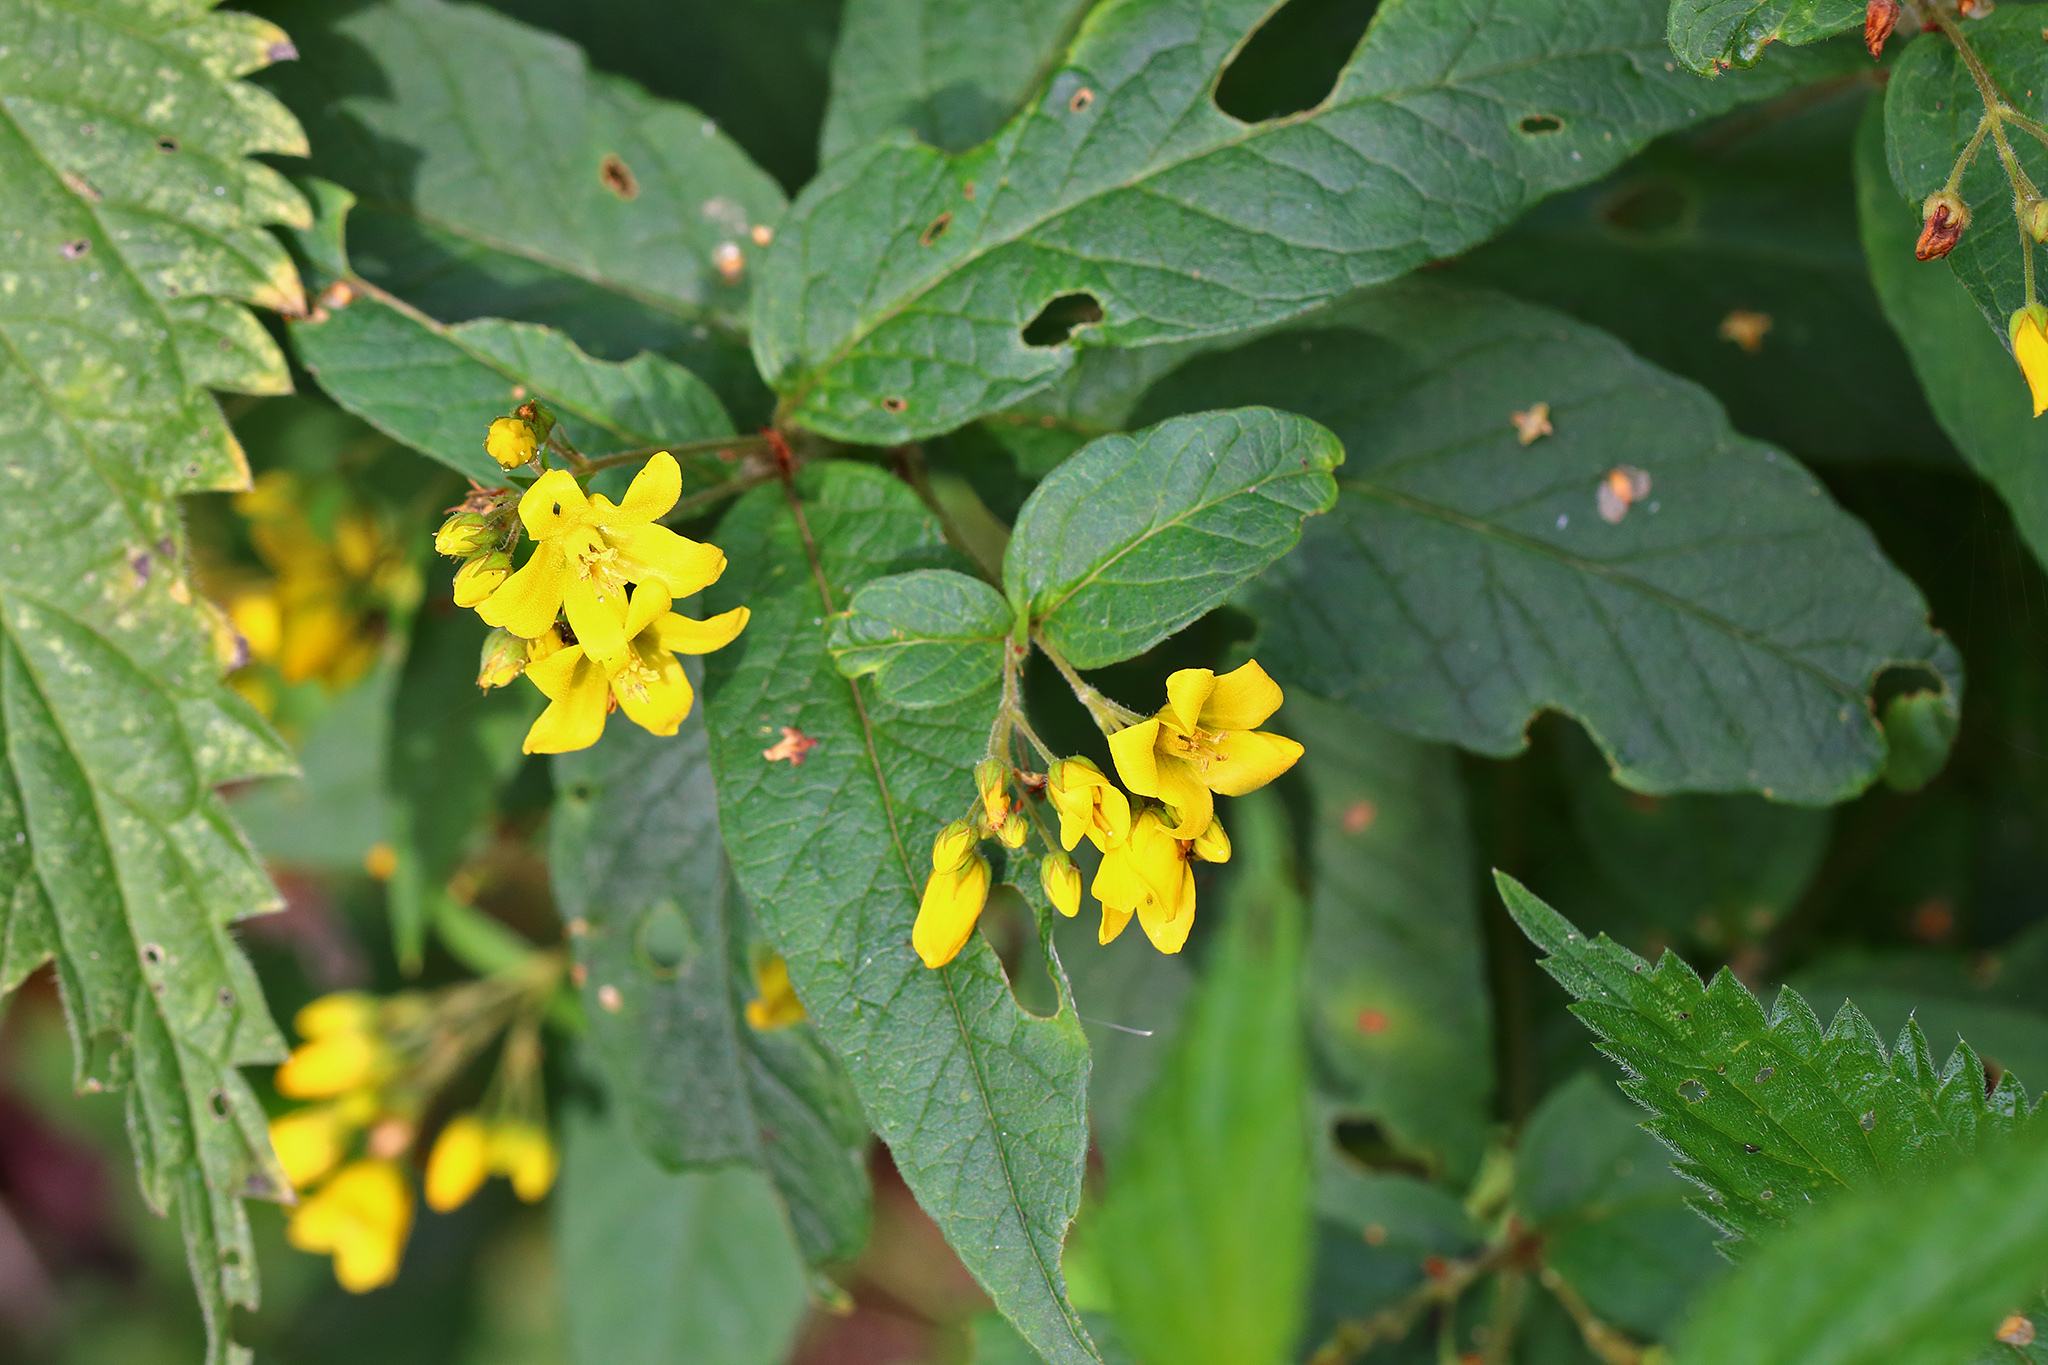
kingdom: Plantae
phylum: Tracheophyta
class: Magnoliopsida
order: Ericales
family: Primulaceae
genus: Lysimachia
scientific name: Lysimachia vulgaris
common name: Yellow loosestrife
